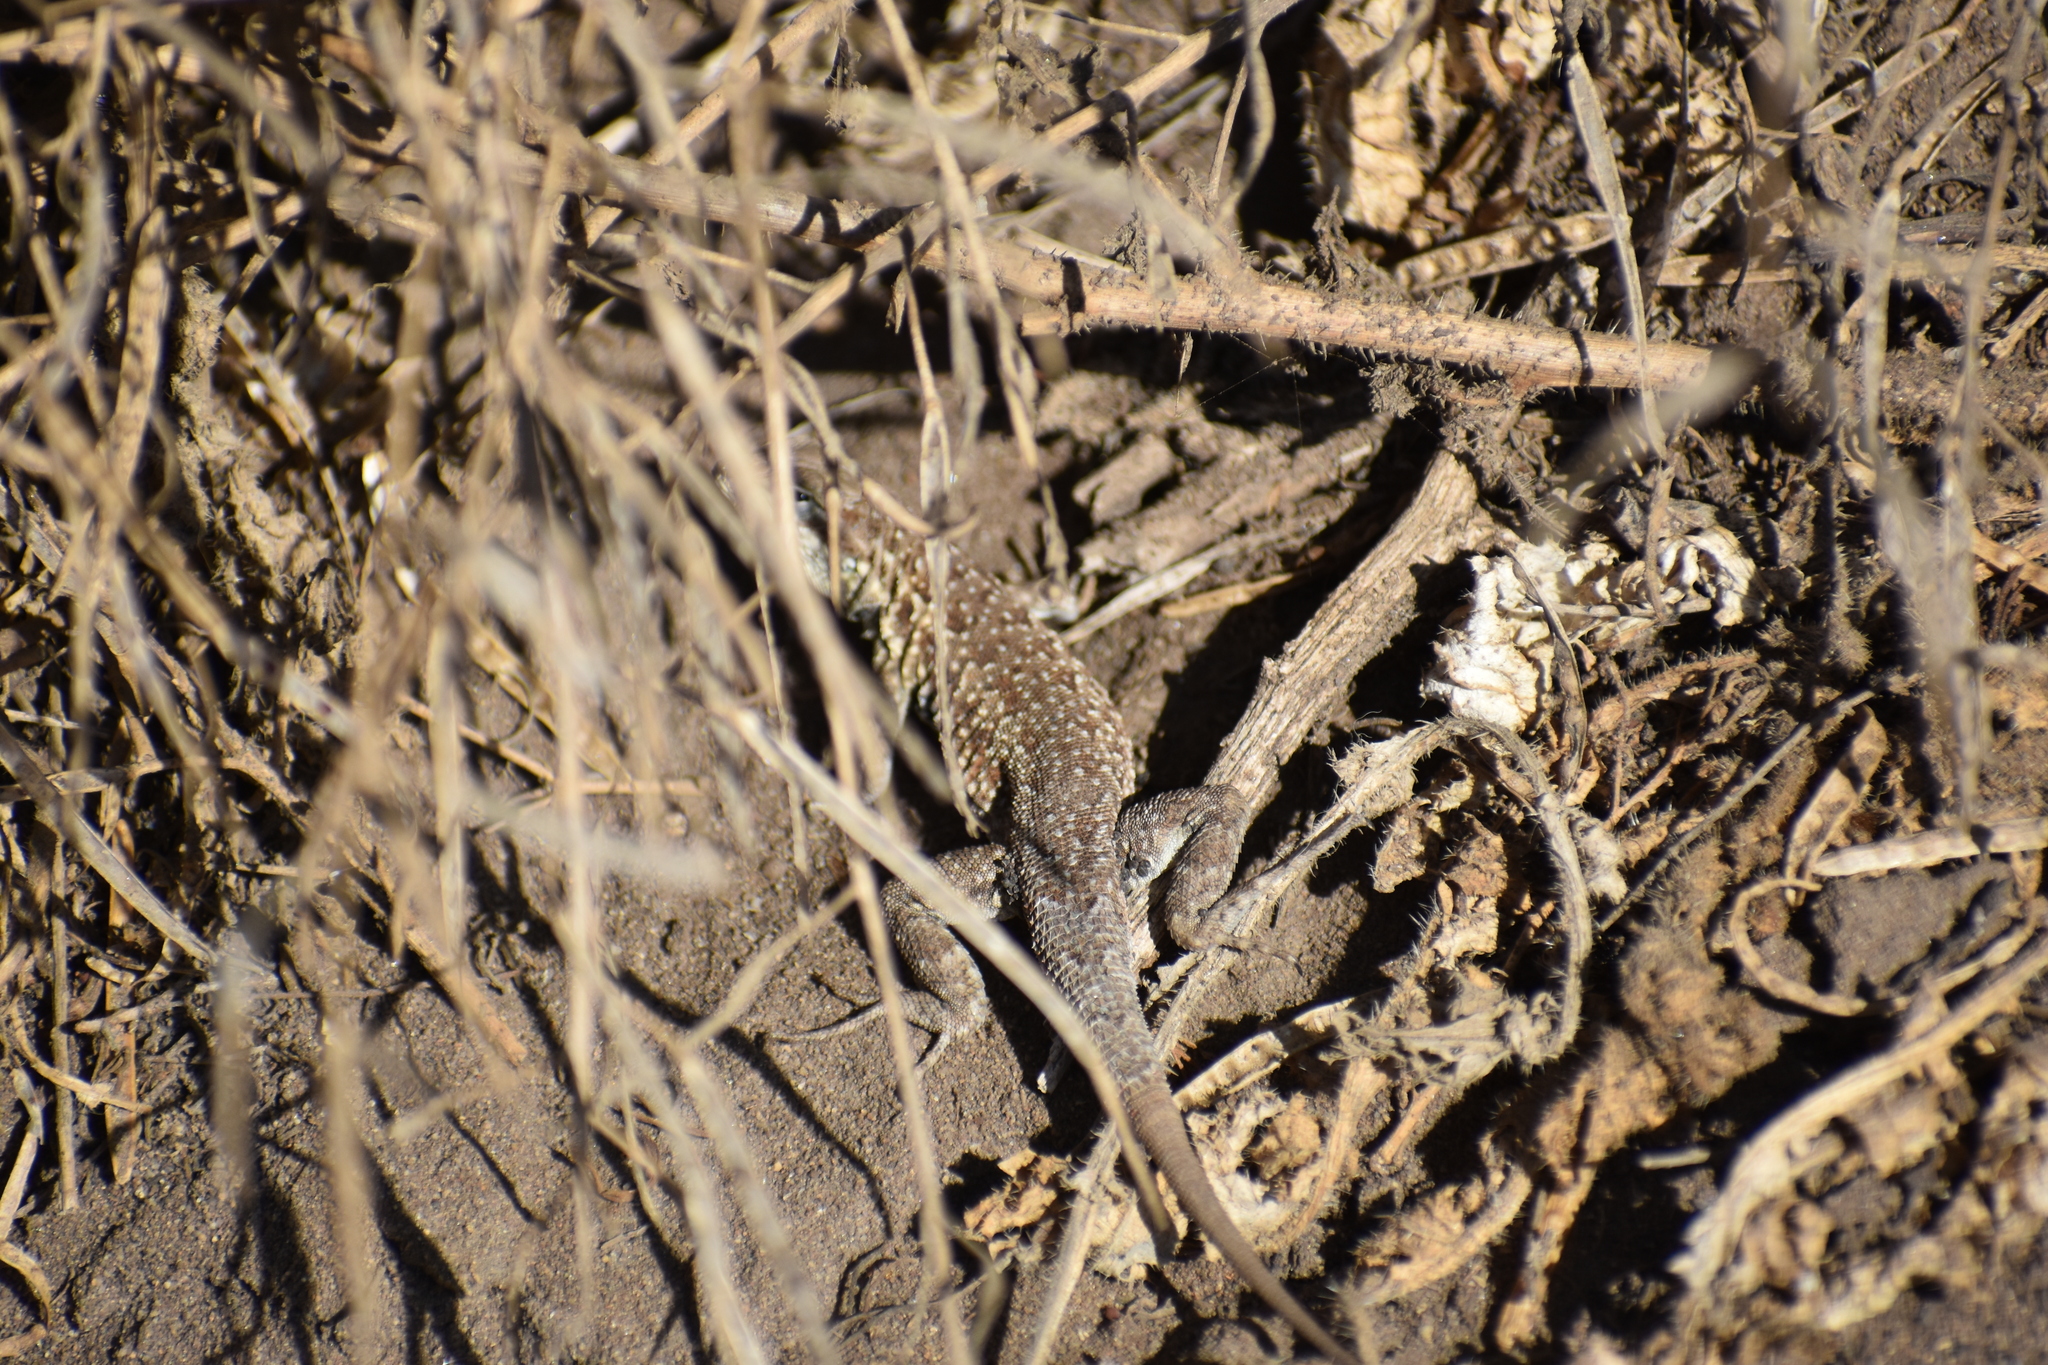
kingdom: Animalia
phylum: Chordata
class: Squamata
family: Phrynosomatidae
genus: Uta
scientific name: Uta stansburiana
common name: Side-blotched lizard
